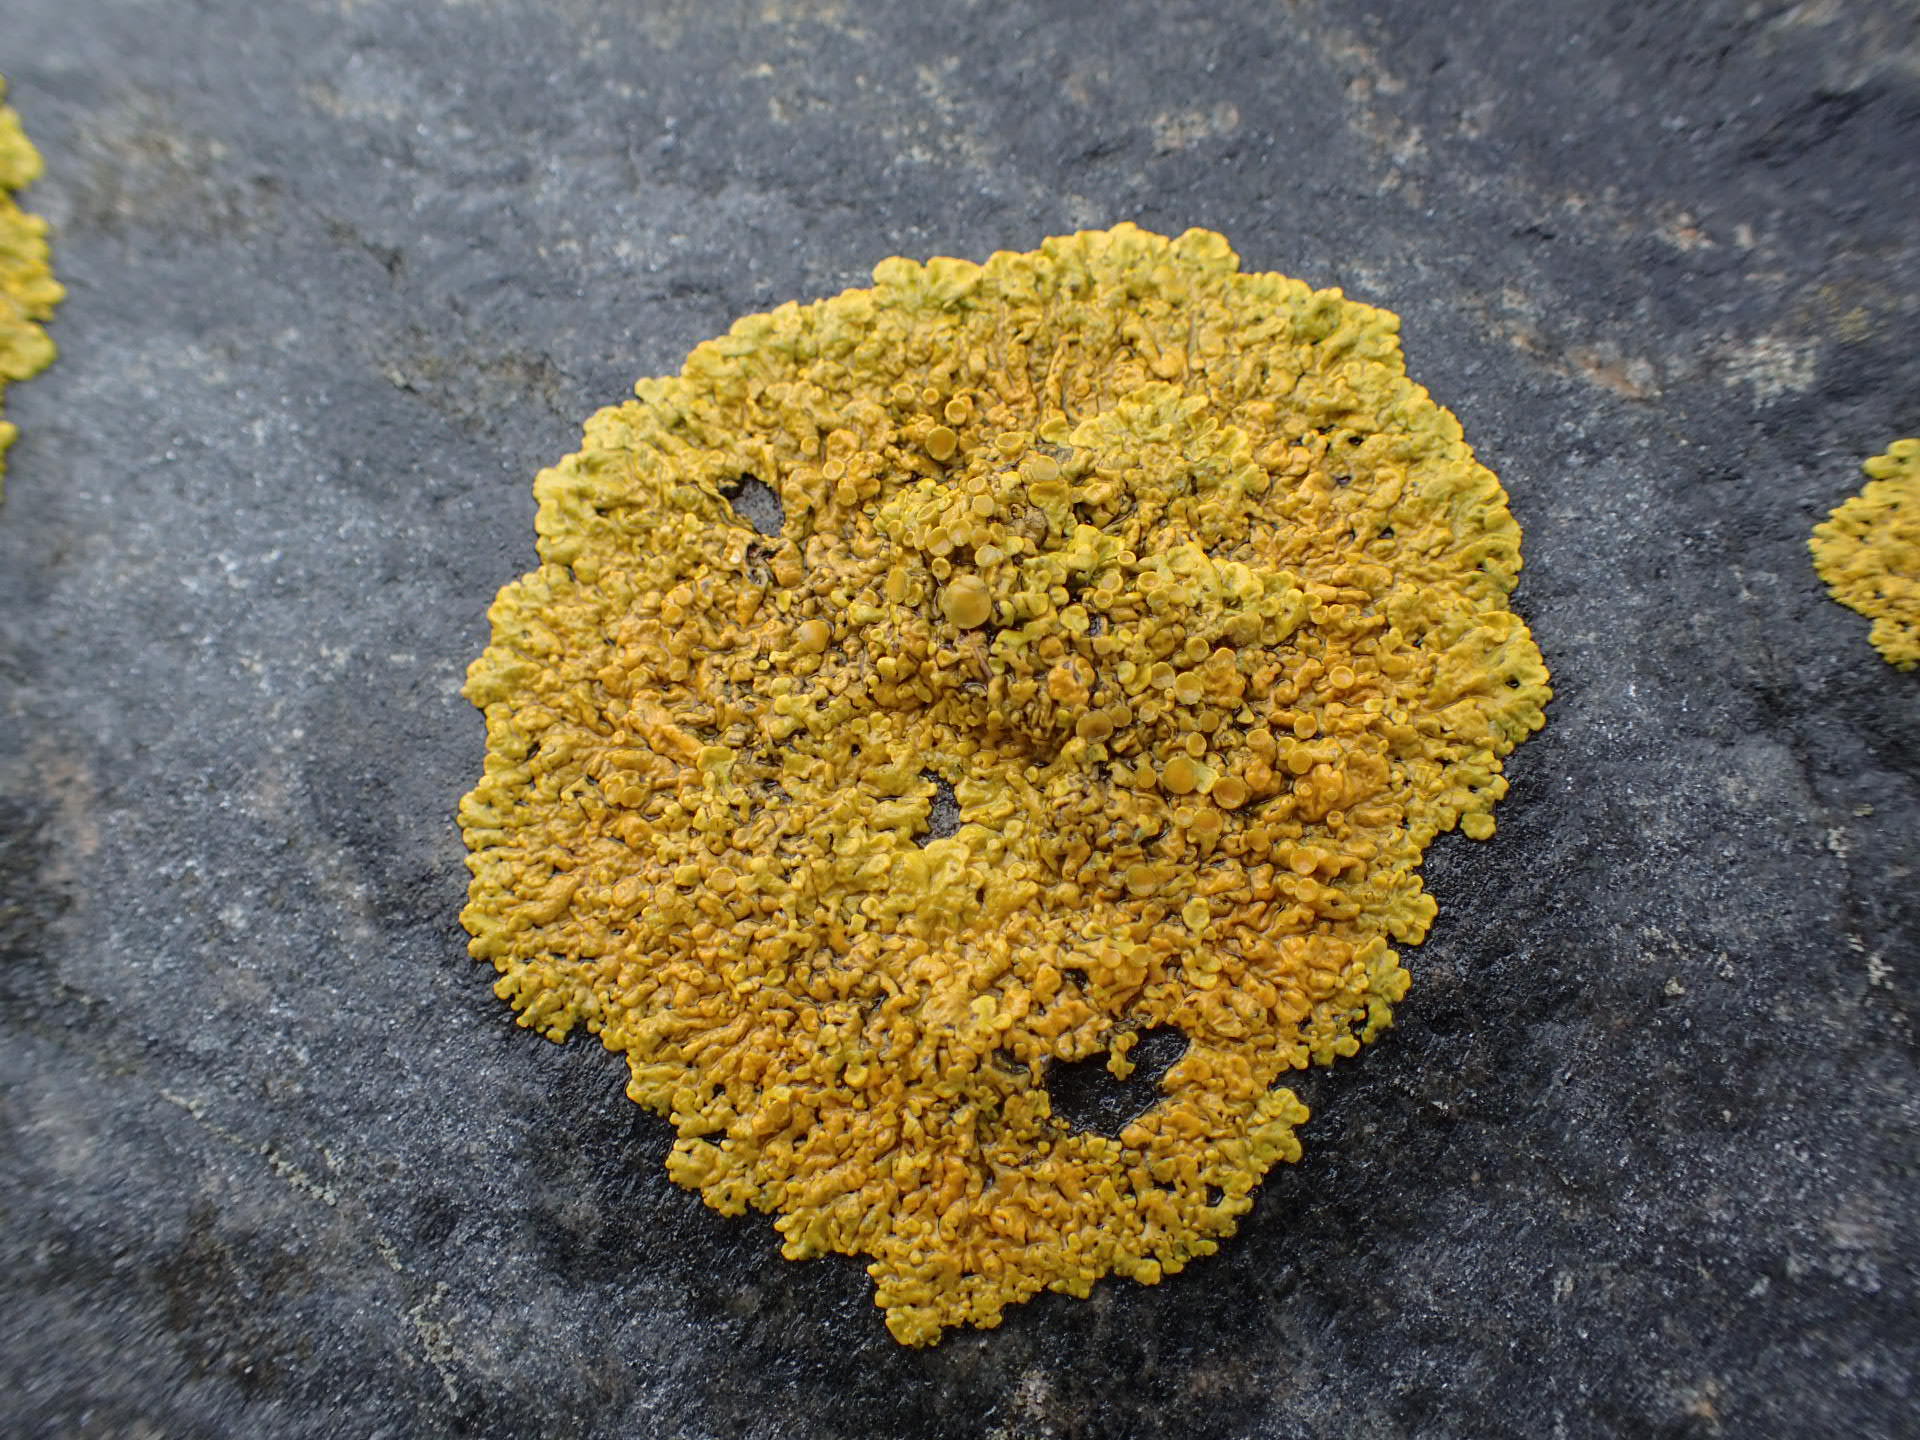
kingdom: Fungi
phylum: Ascomycota
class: Lecanoromycetes
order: Teloschistales
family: Teloschistaceae
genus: Xanthoria
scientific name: Xanthoria parietina
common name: Common orange lichen
